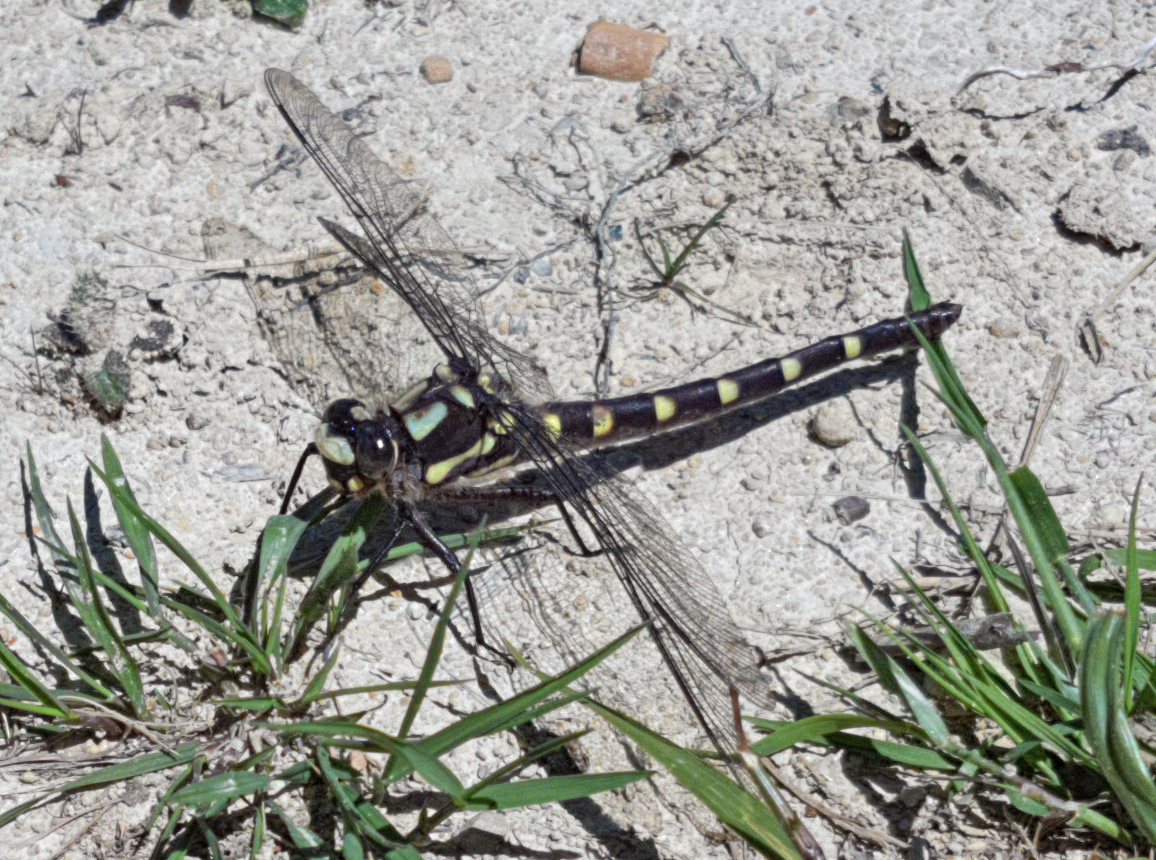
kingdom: Animalia
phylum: Arthropoda
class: Insecta
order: Odonata
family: Petaluridae
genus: Uropetala
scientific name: Uropetala chiltoni
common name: Mountain giant dragonfly
